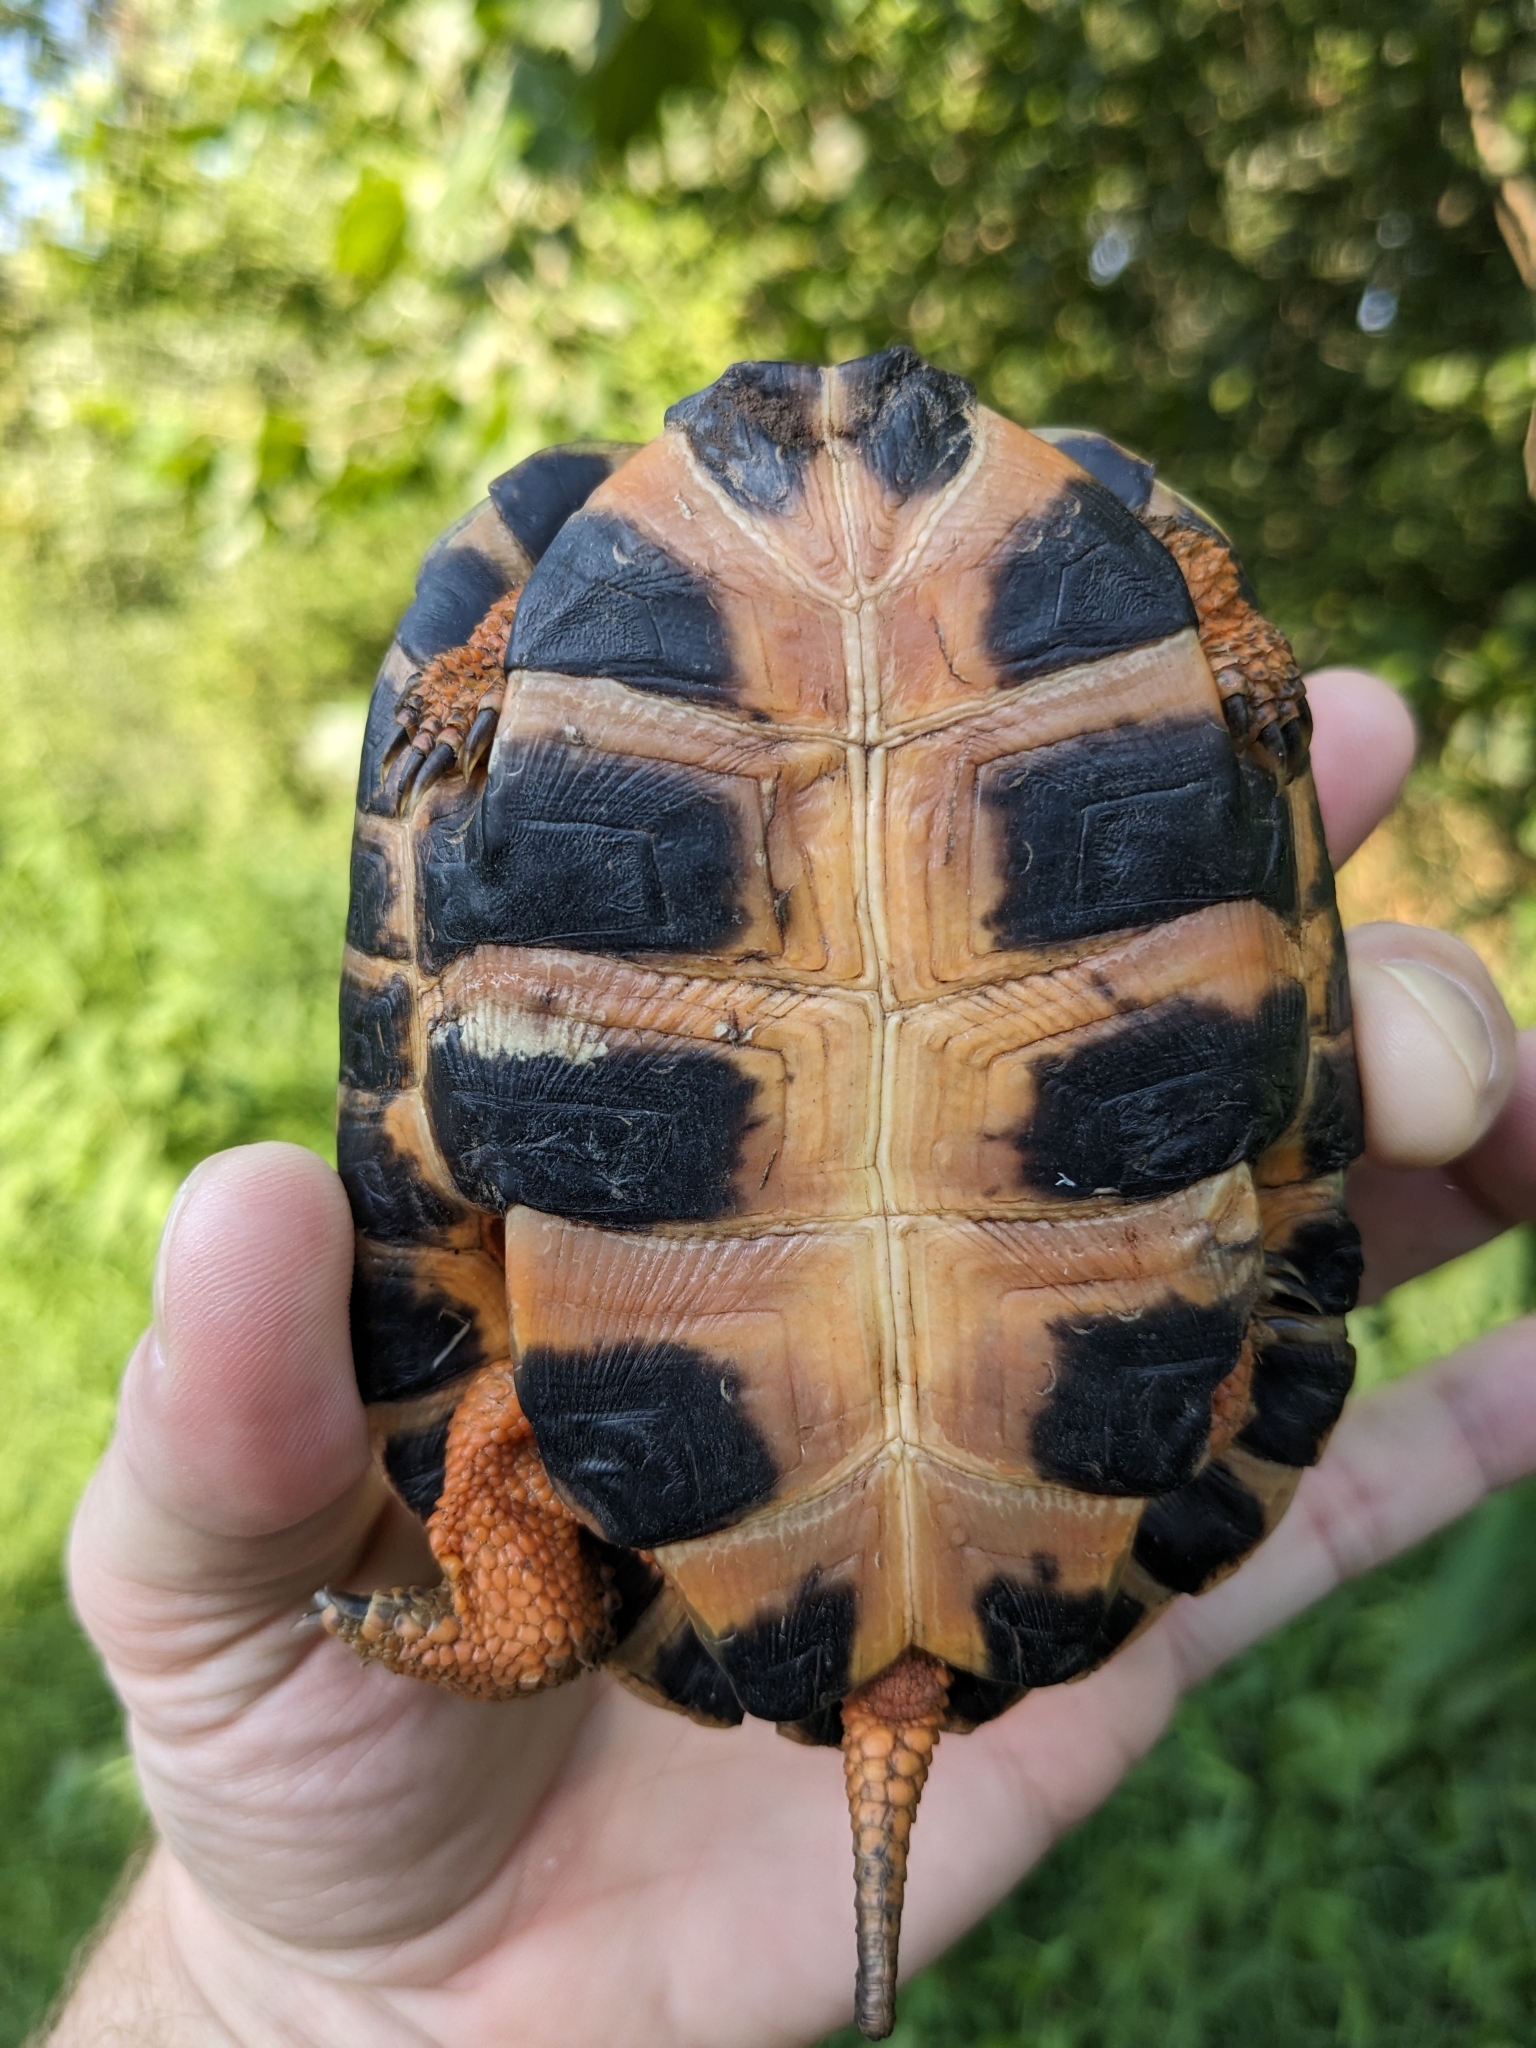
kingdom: Animalia
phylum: Chordata
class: Testudines
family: Emydidae
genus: Glyptemys
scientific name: Glyptemys insculpta
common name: Wood turtle
